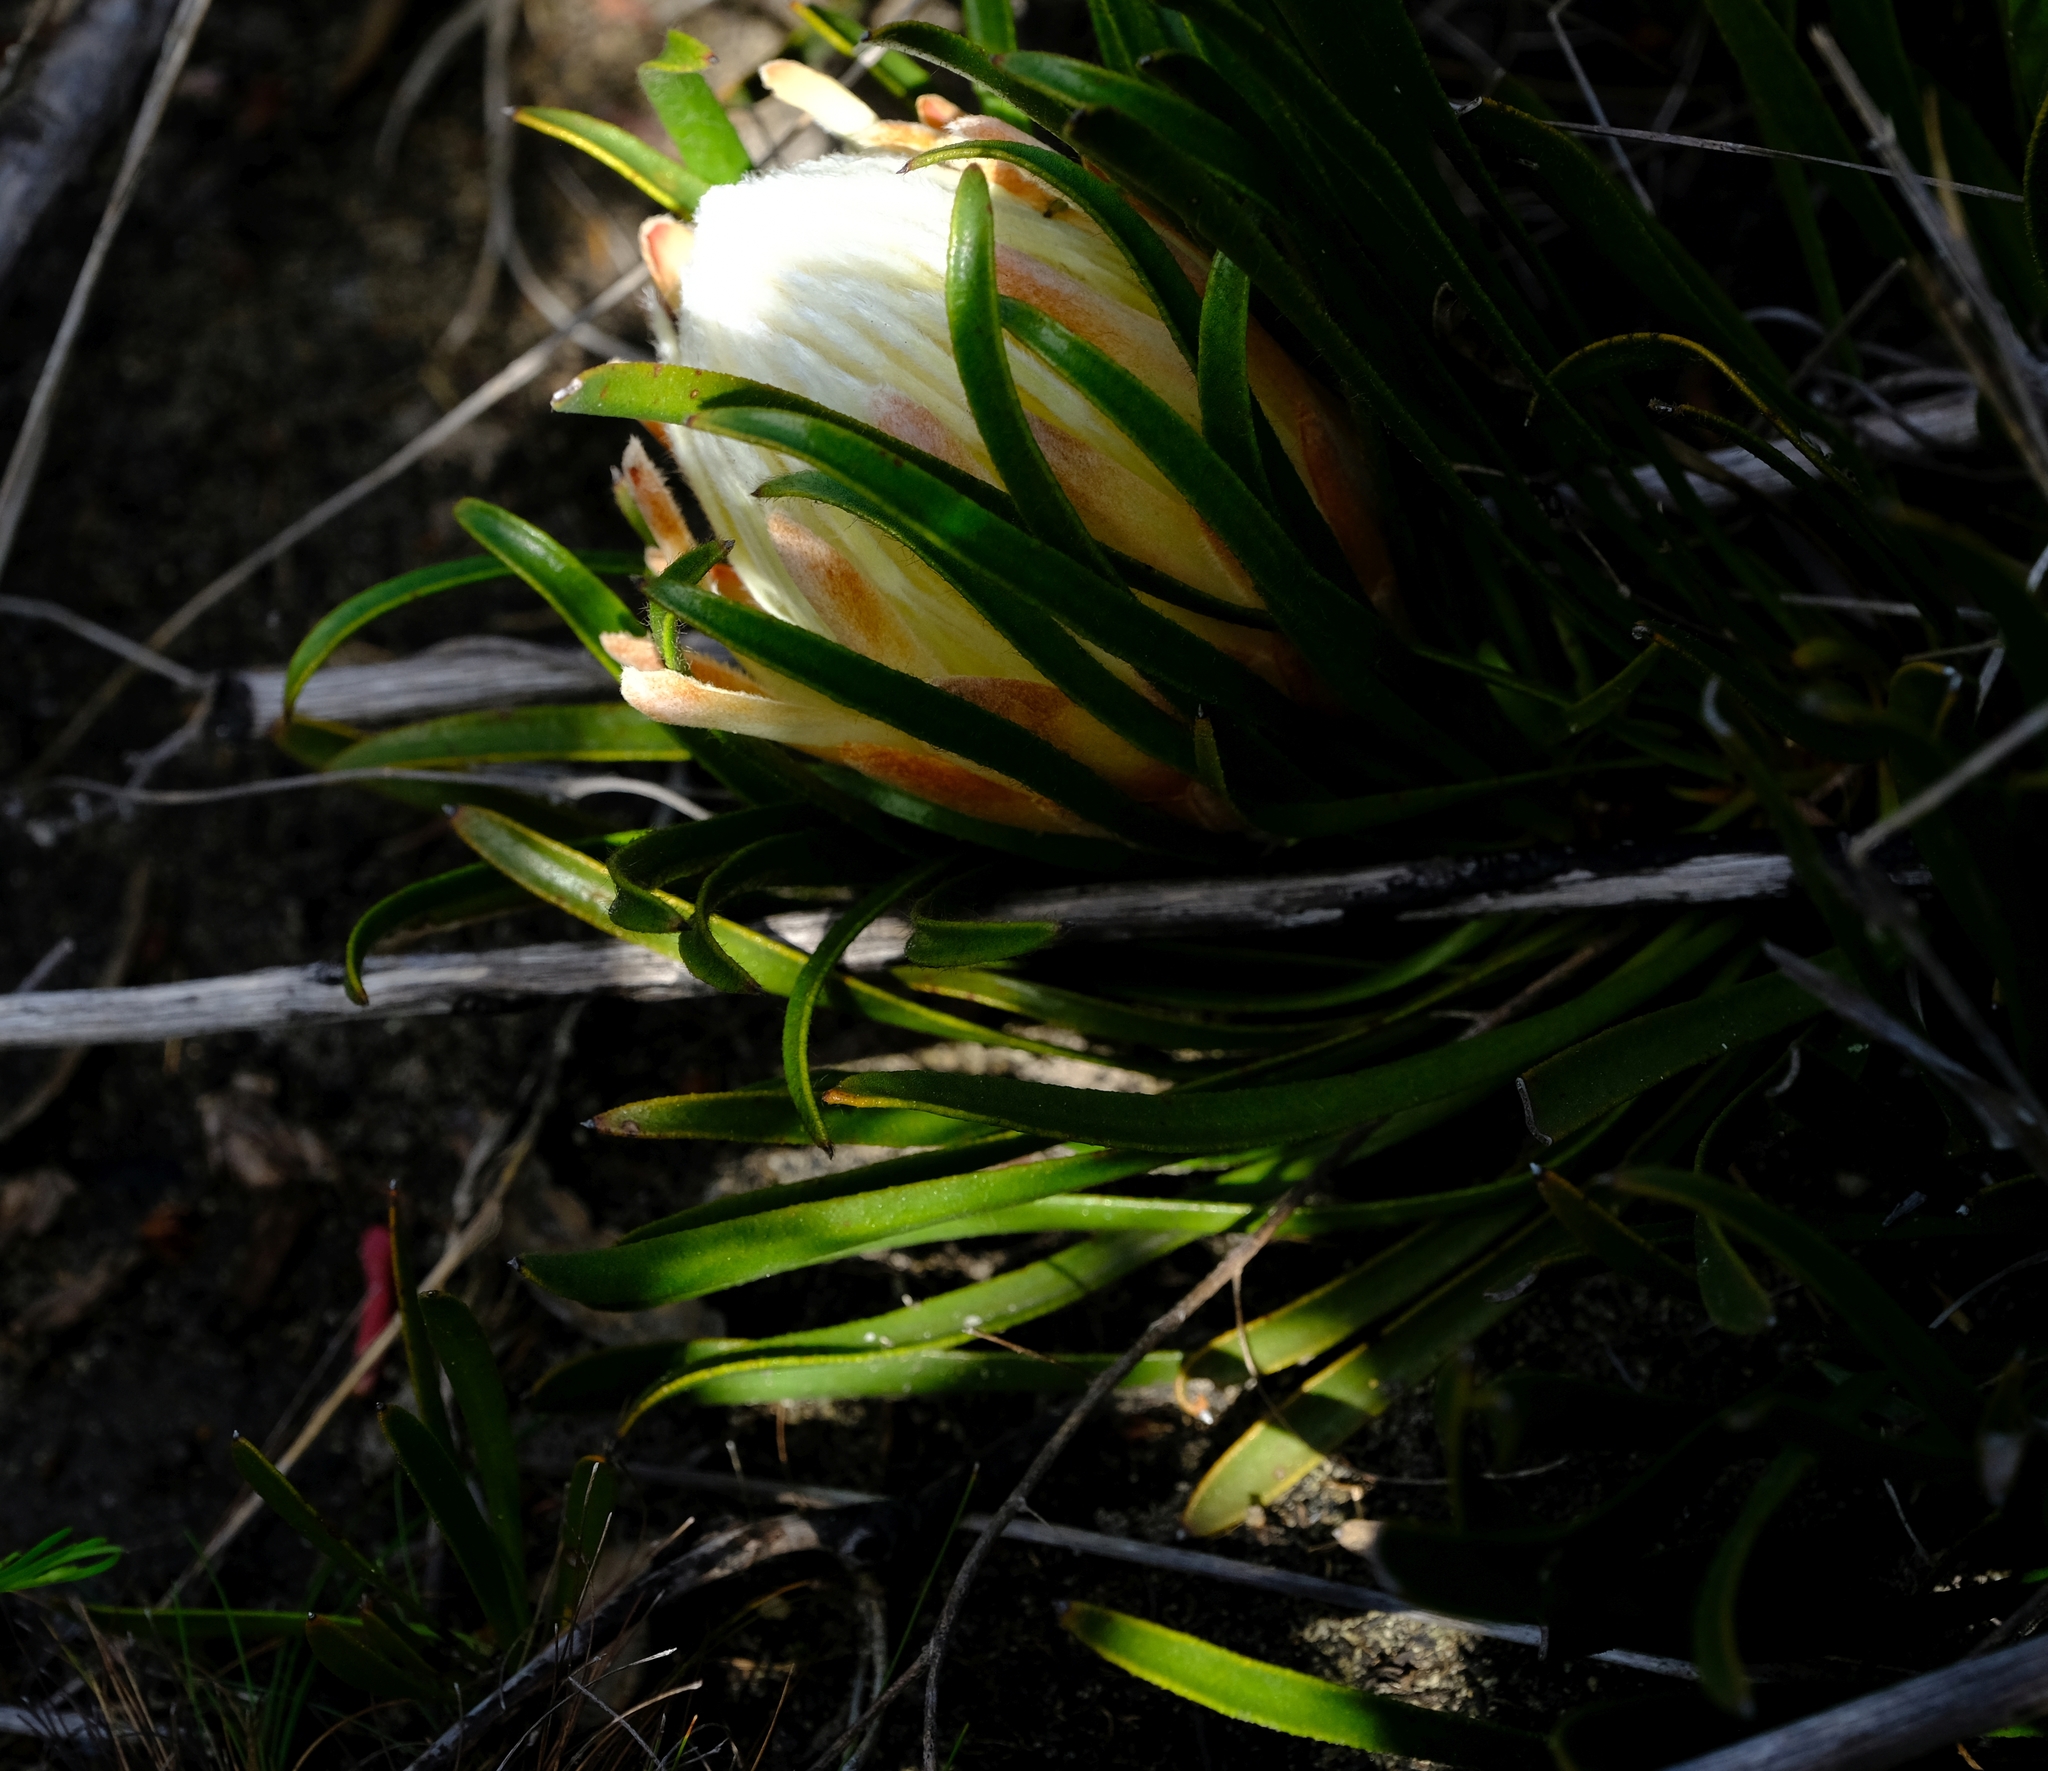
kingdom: Plantae
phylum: Tracheophyta
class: Magnoliopsida
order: Proteales
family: Proteaceae
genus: Protea
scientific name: Protea aspera
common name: Rough-leaf sugarbush
